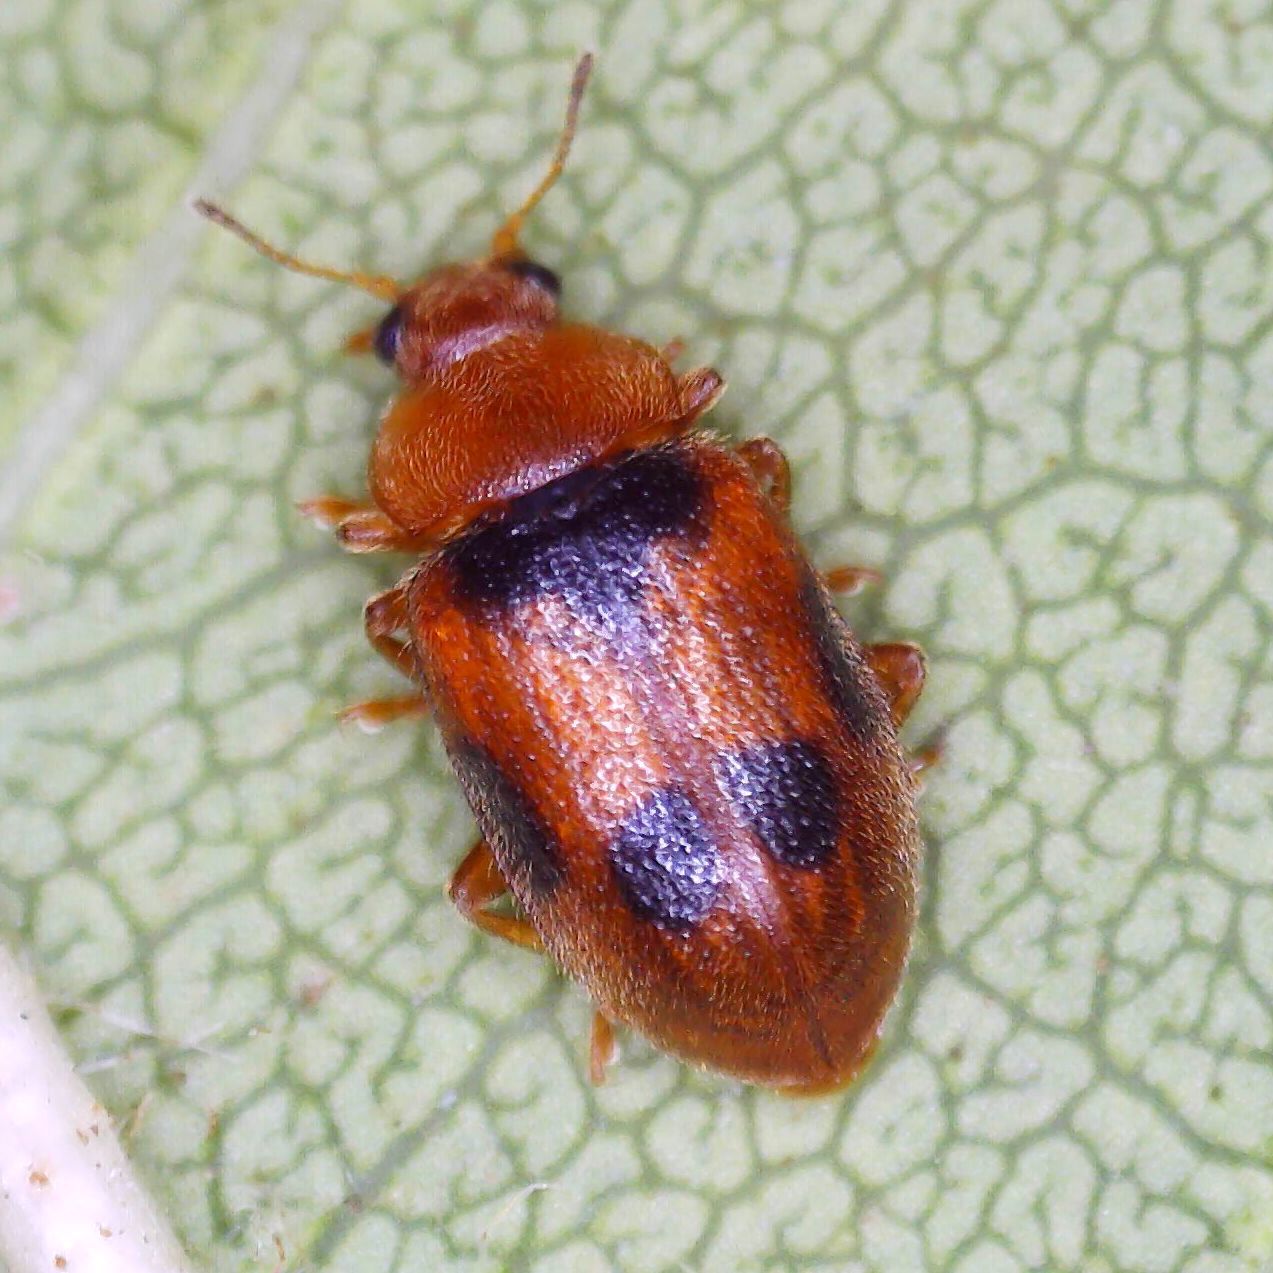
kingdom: Animalia
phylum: Arthropoda
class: Insecta
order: Coleoptera
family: Coccinellidae
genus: Coccidula
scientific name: Coccidula scutellata
